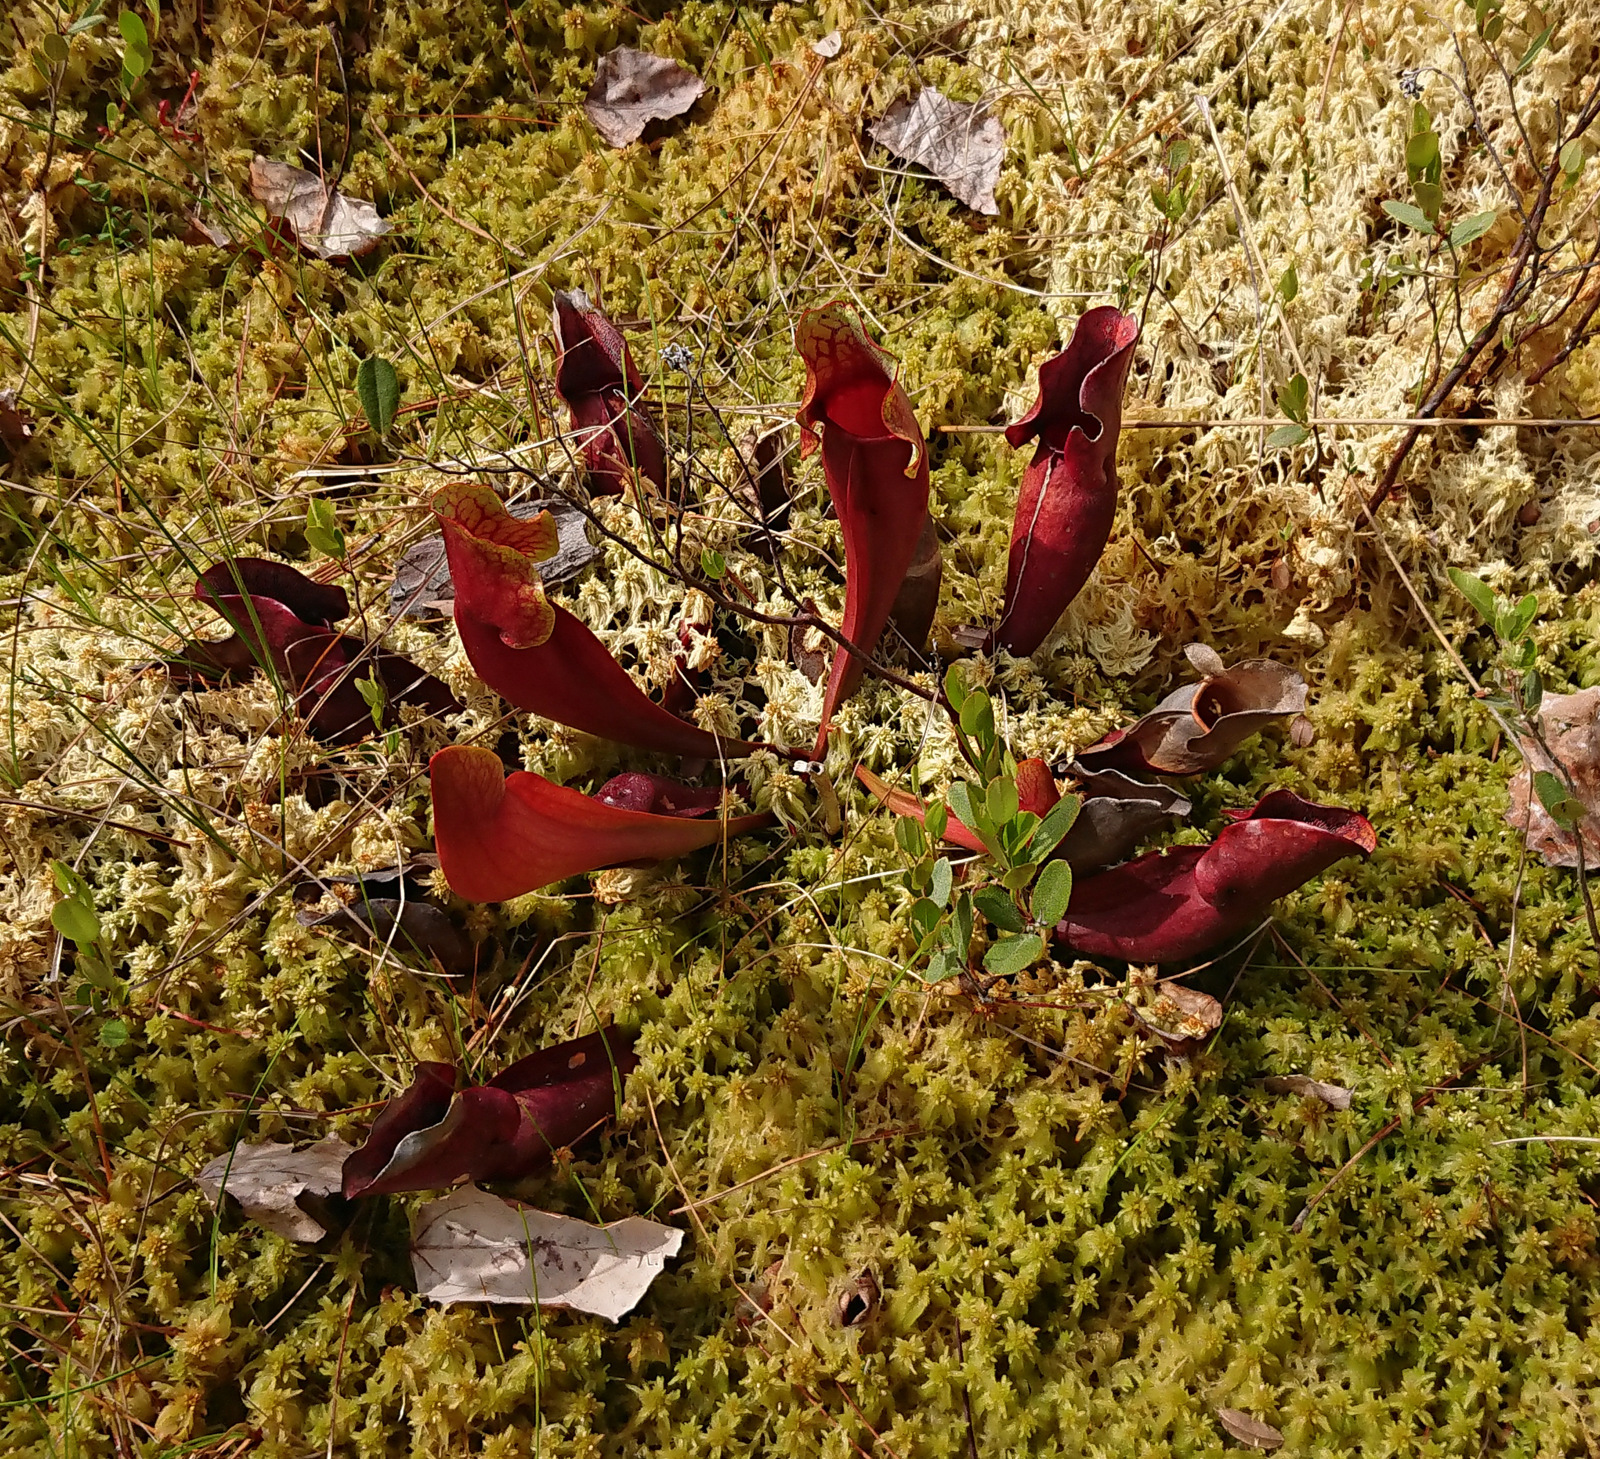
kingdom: Plantae
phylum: Tracheophyta
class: Magnoliopsida
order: Ericales
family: Sarraceniaceae
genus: Sarracenia
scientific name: Sarracenia purpurea
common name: Pitcherplant
